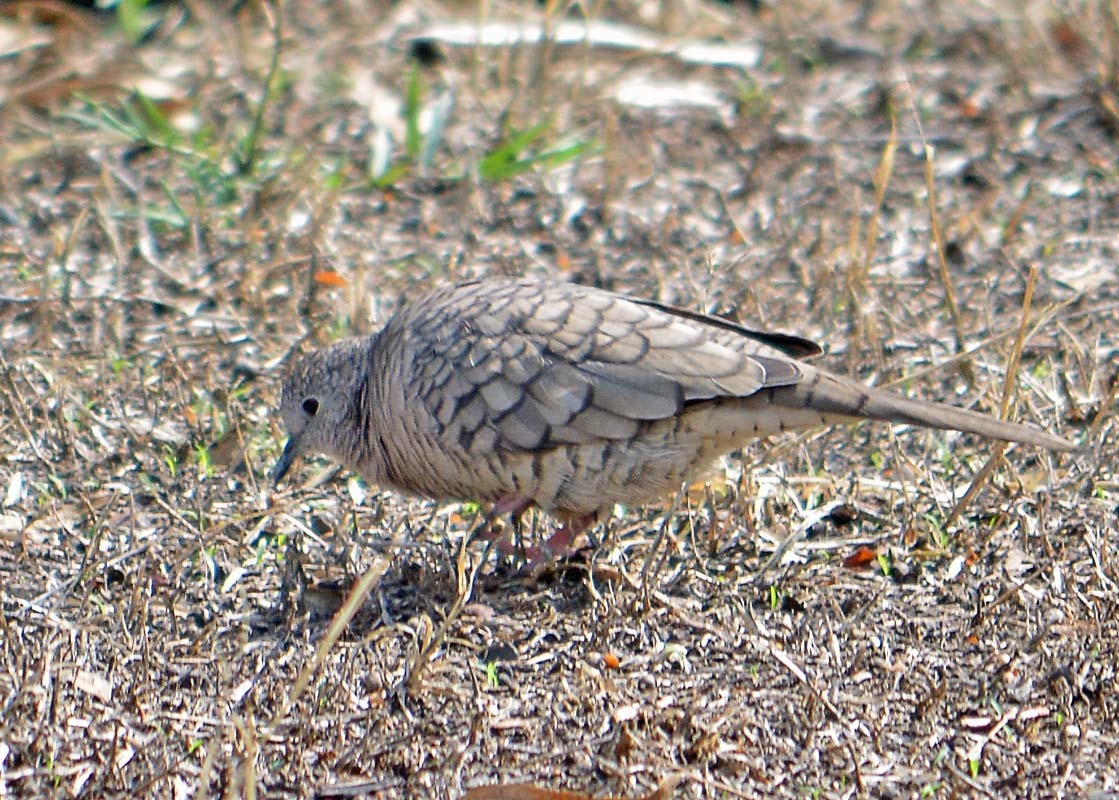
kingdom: Animalia
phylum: Chordata
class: Aves
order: Columbiformes
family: Columbidae
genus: Columbina
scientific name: Columbina inca
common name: Inca dove
